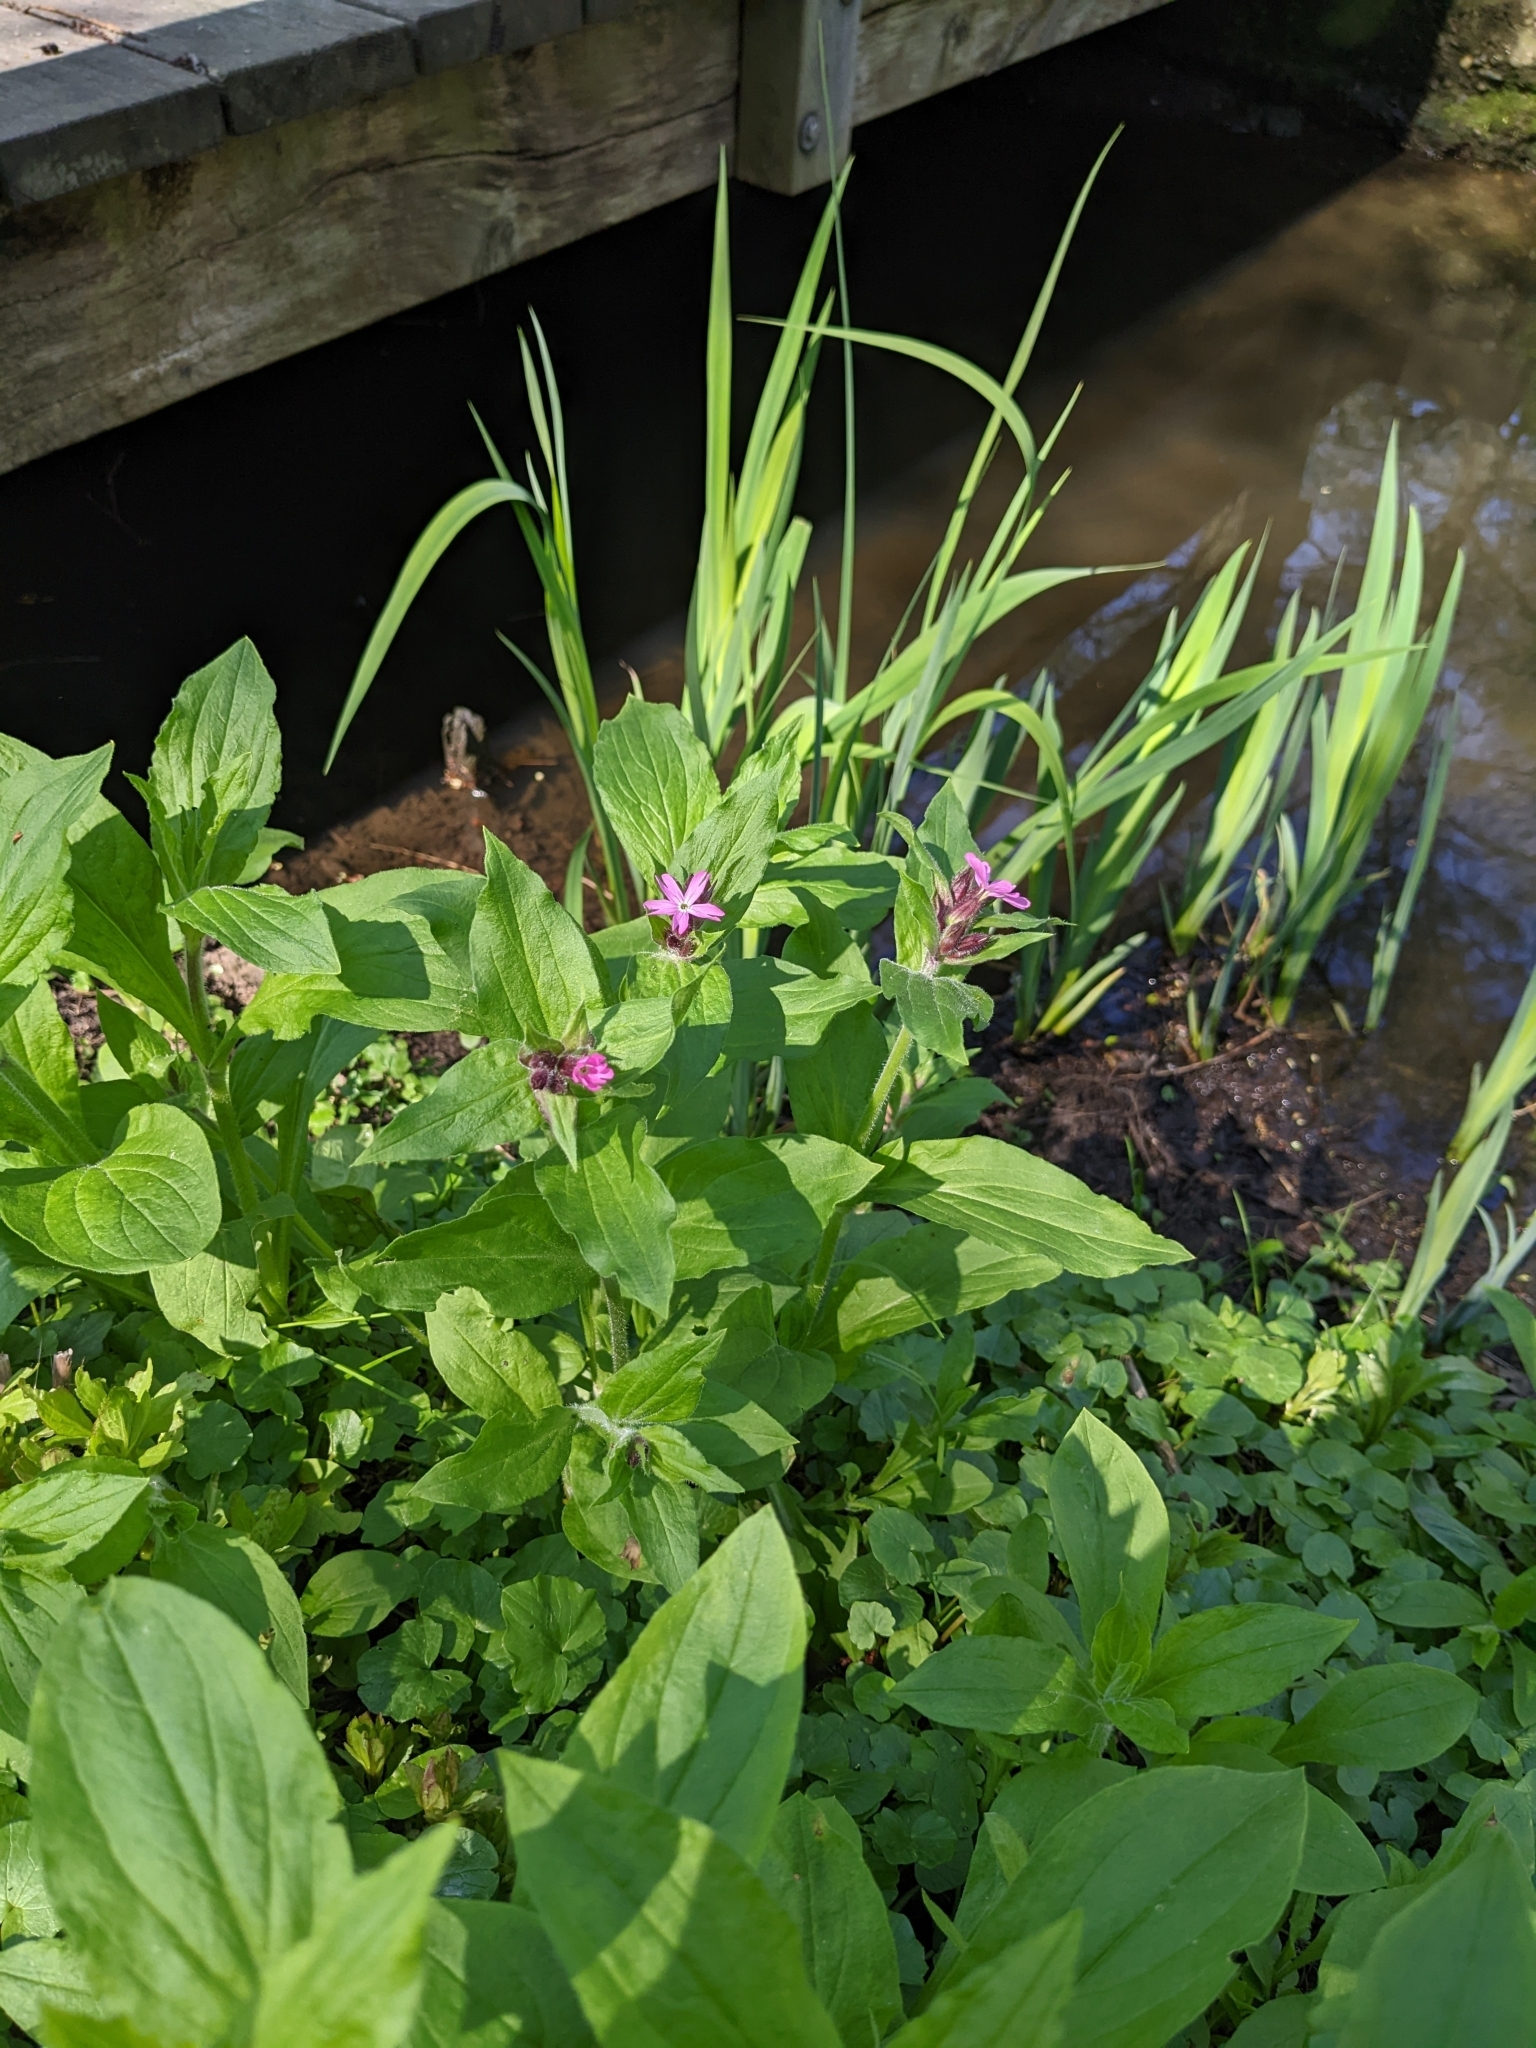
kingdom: Plantae
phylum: Tracheophyta
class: Magnoliopsida
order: Caryophyllales
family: Caryophyllaceae
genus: Silene
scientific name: Silene dioica
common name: Red campion
